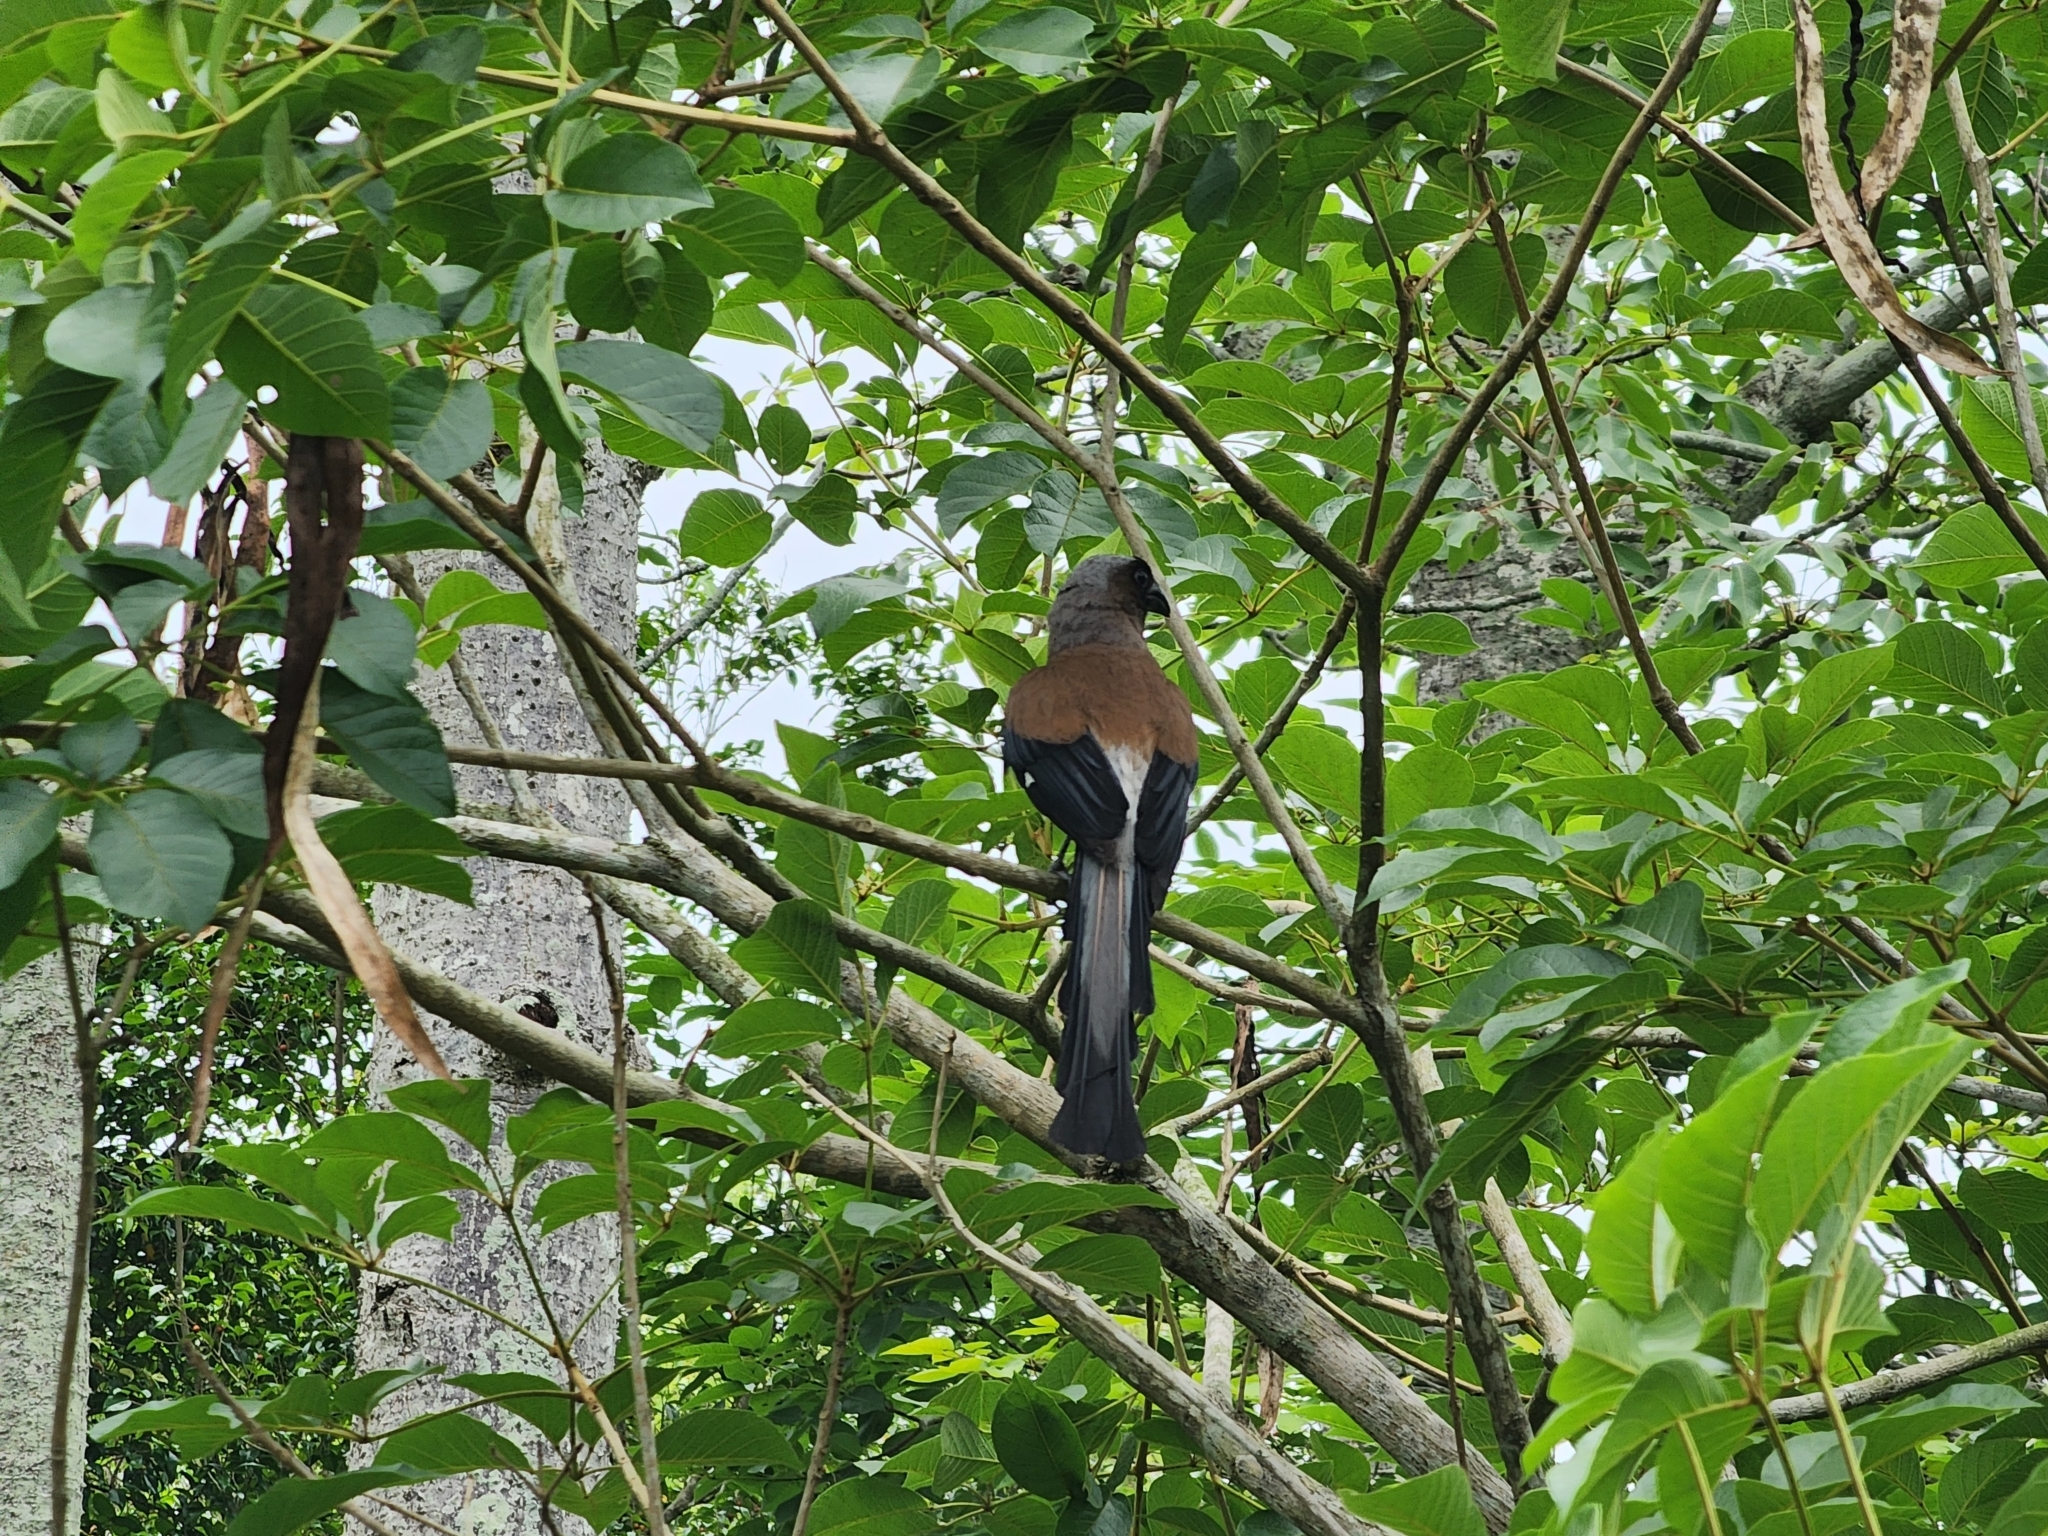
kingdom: Animalia
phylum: Chordata
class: Aves
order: Passeriformes
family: Corvidae
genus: Dendrocitta
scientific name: Dendrocitta formosae
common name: Grey treepie
